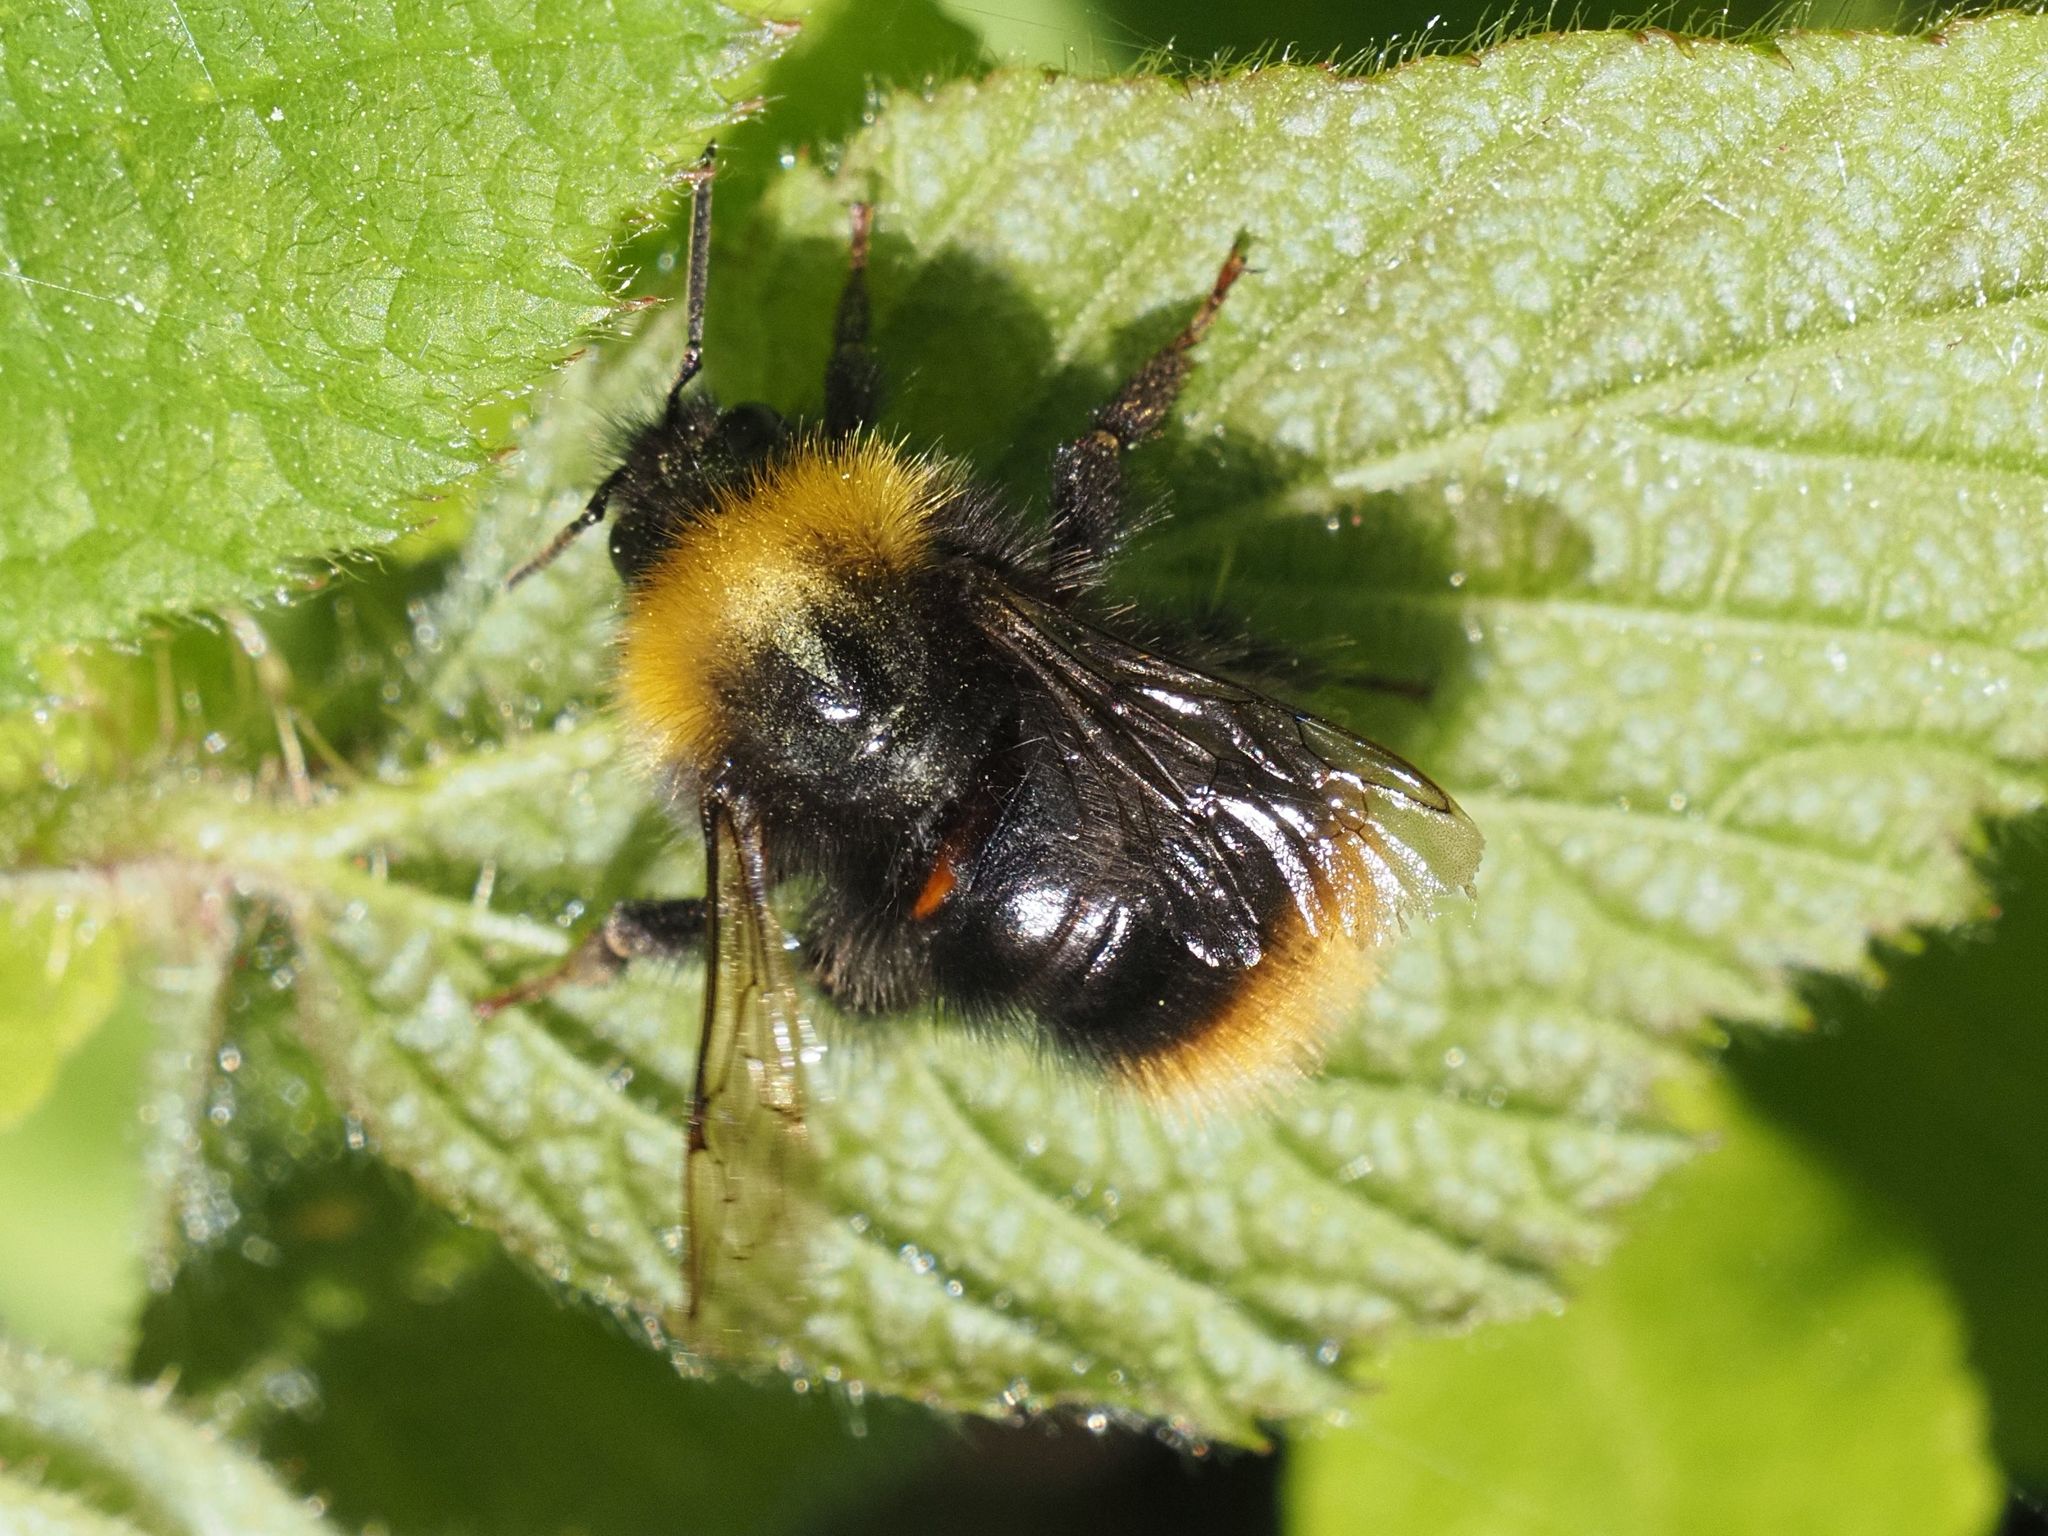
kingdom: Animalia
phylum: Arthropoda
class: Insecta
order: Hymenoptera
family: Apidae
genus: Bombus
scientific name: Bombus pratorum
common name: Early humble-bee
